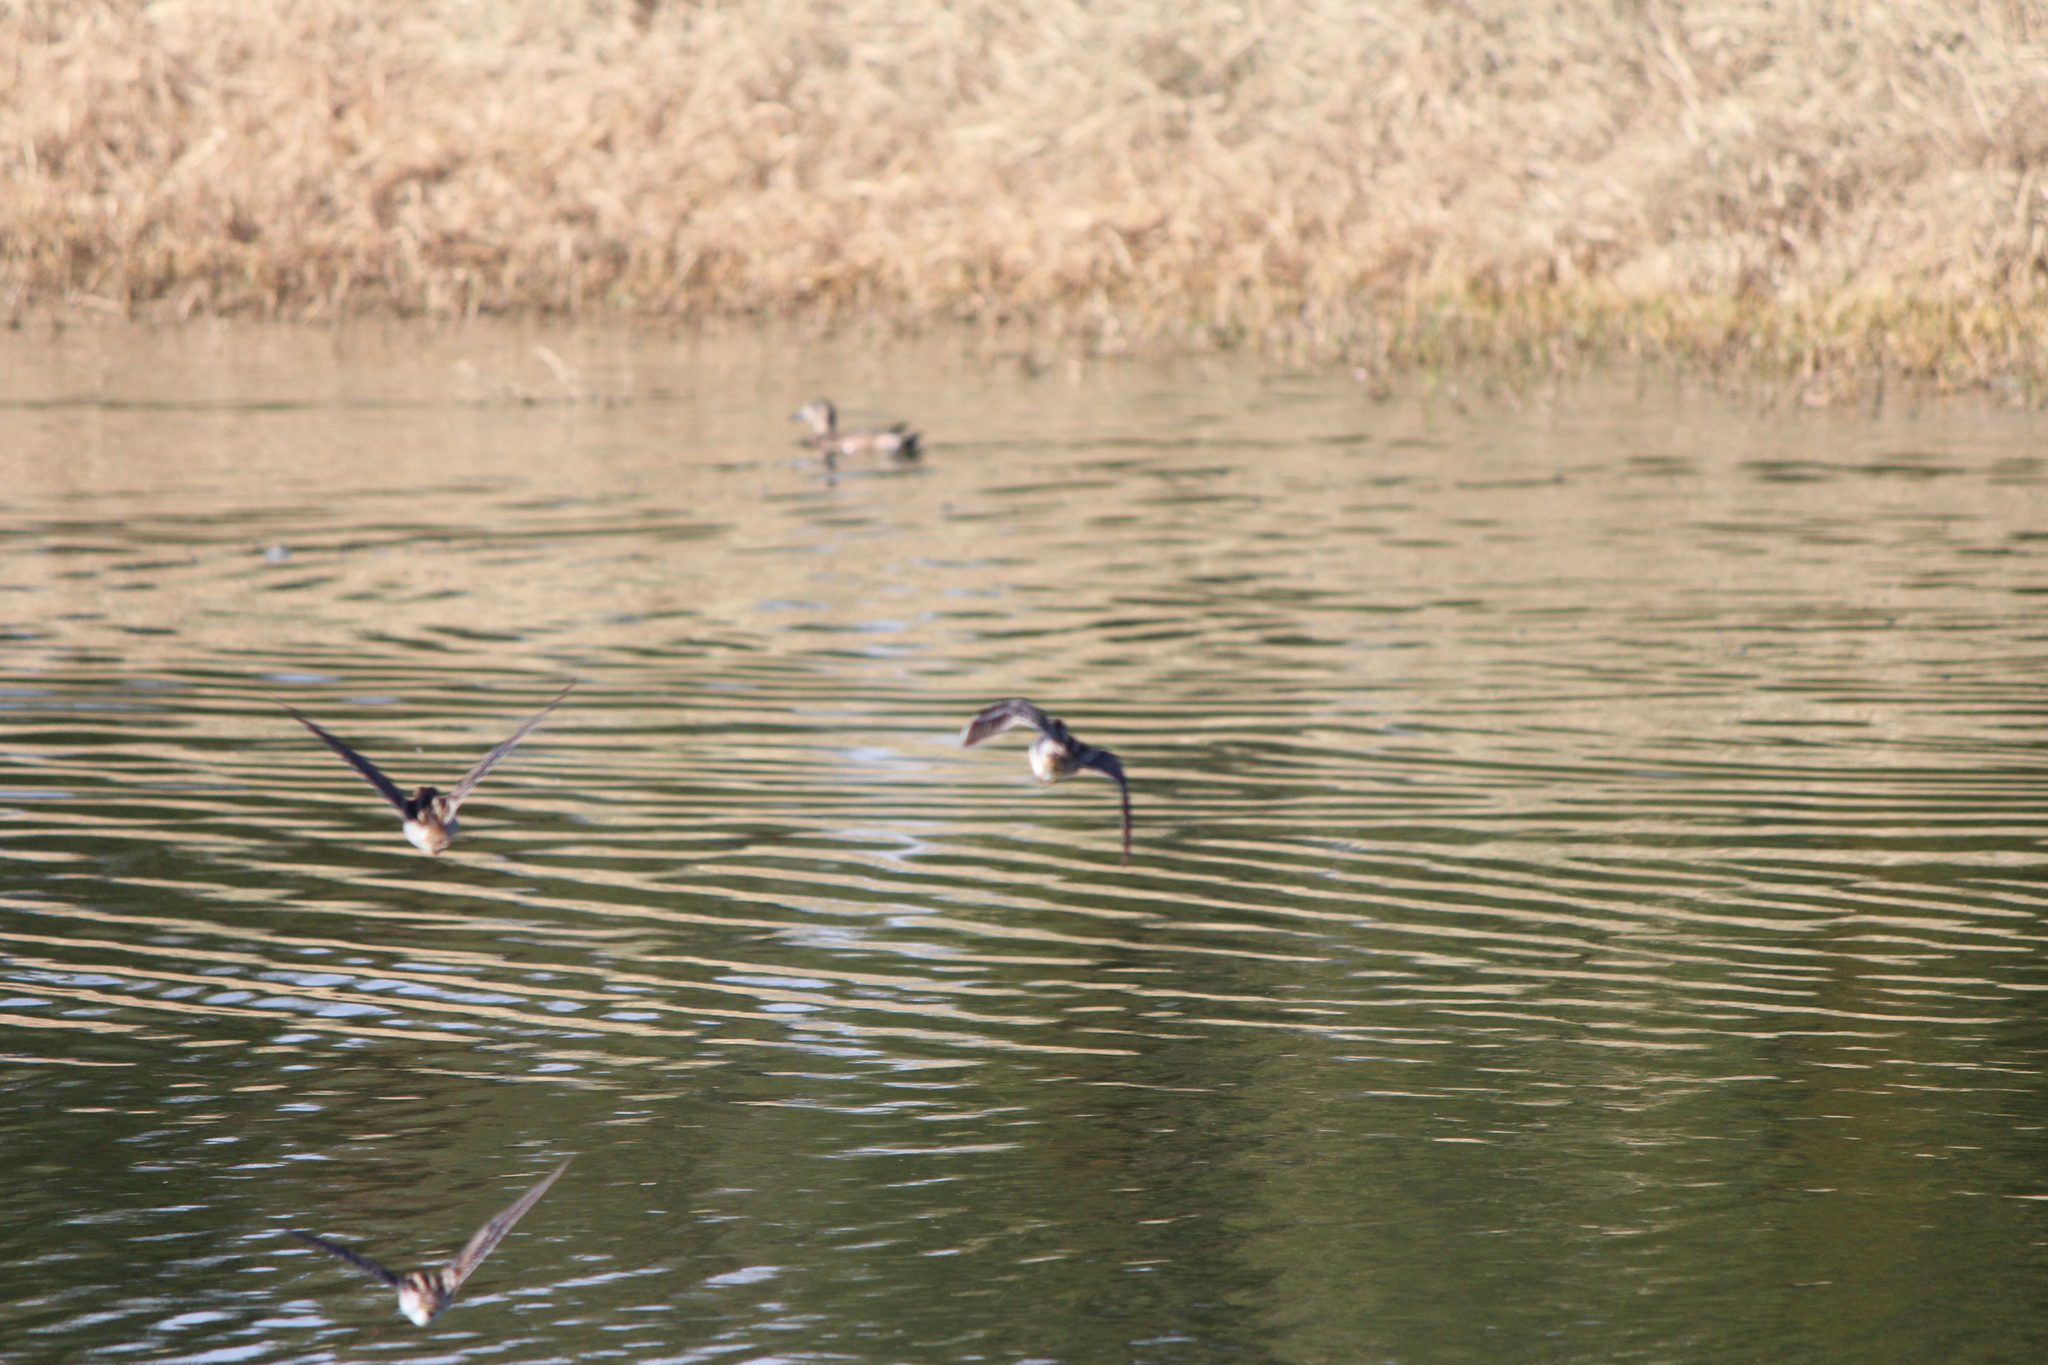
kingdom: Animalia
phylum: Chordata
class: Aves
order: Charadriiformes
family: Scolopacidae
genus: Gallinago
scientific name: Gallinago delicata
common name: Wilson's snipe
